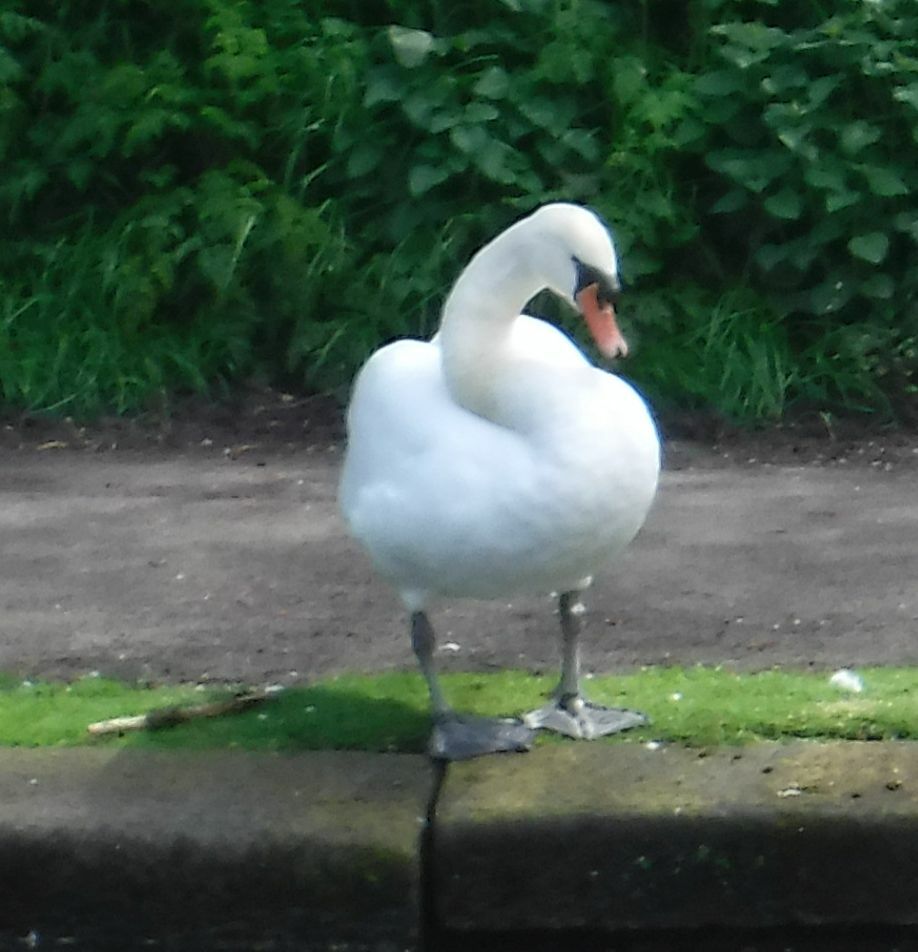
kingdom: Animalia
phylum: Chordata
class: Aves
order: Anseriformes
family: Anatidae
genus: Cygnus
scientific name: Cygnus olor
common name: Mute swan
